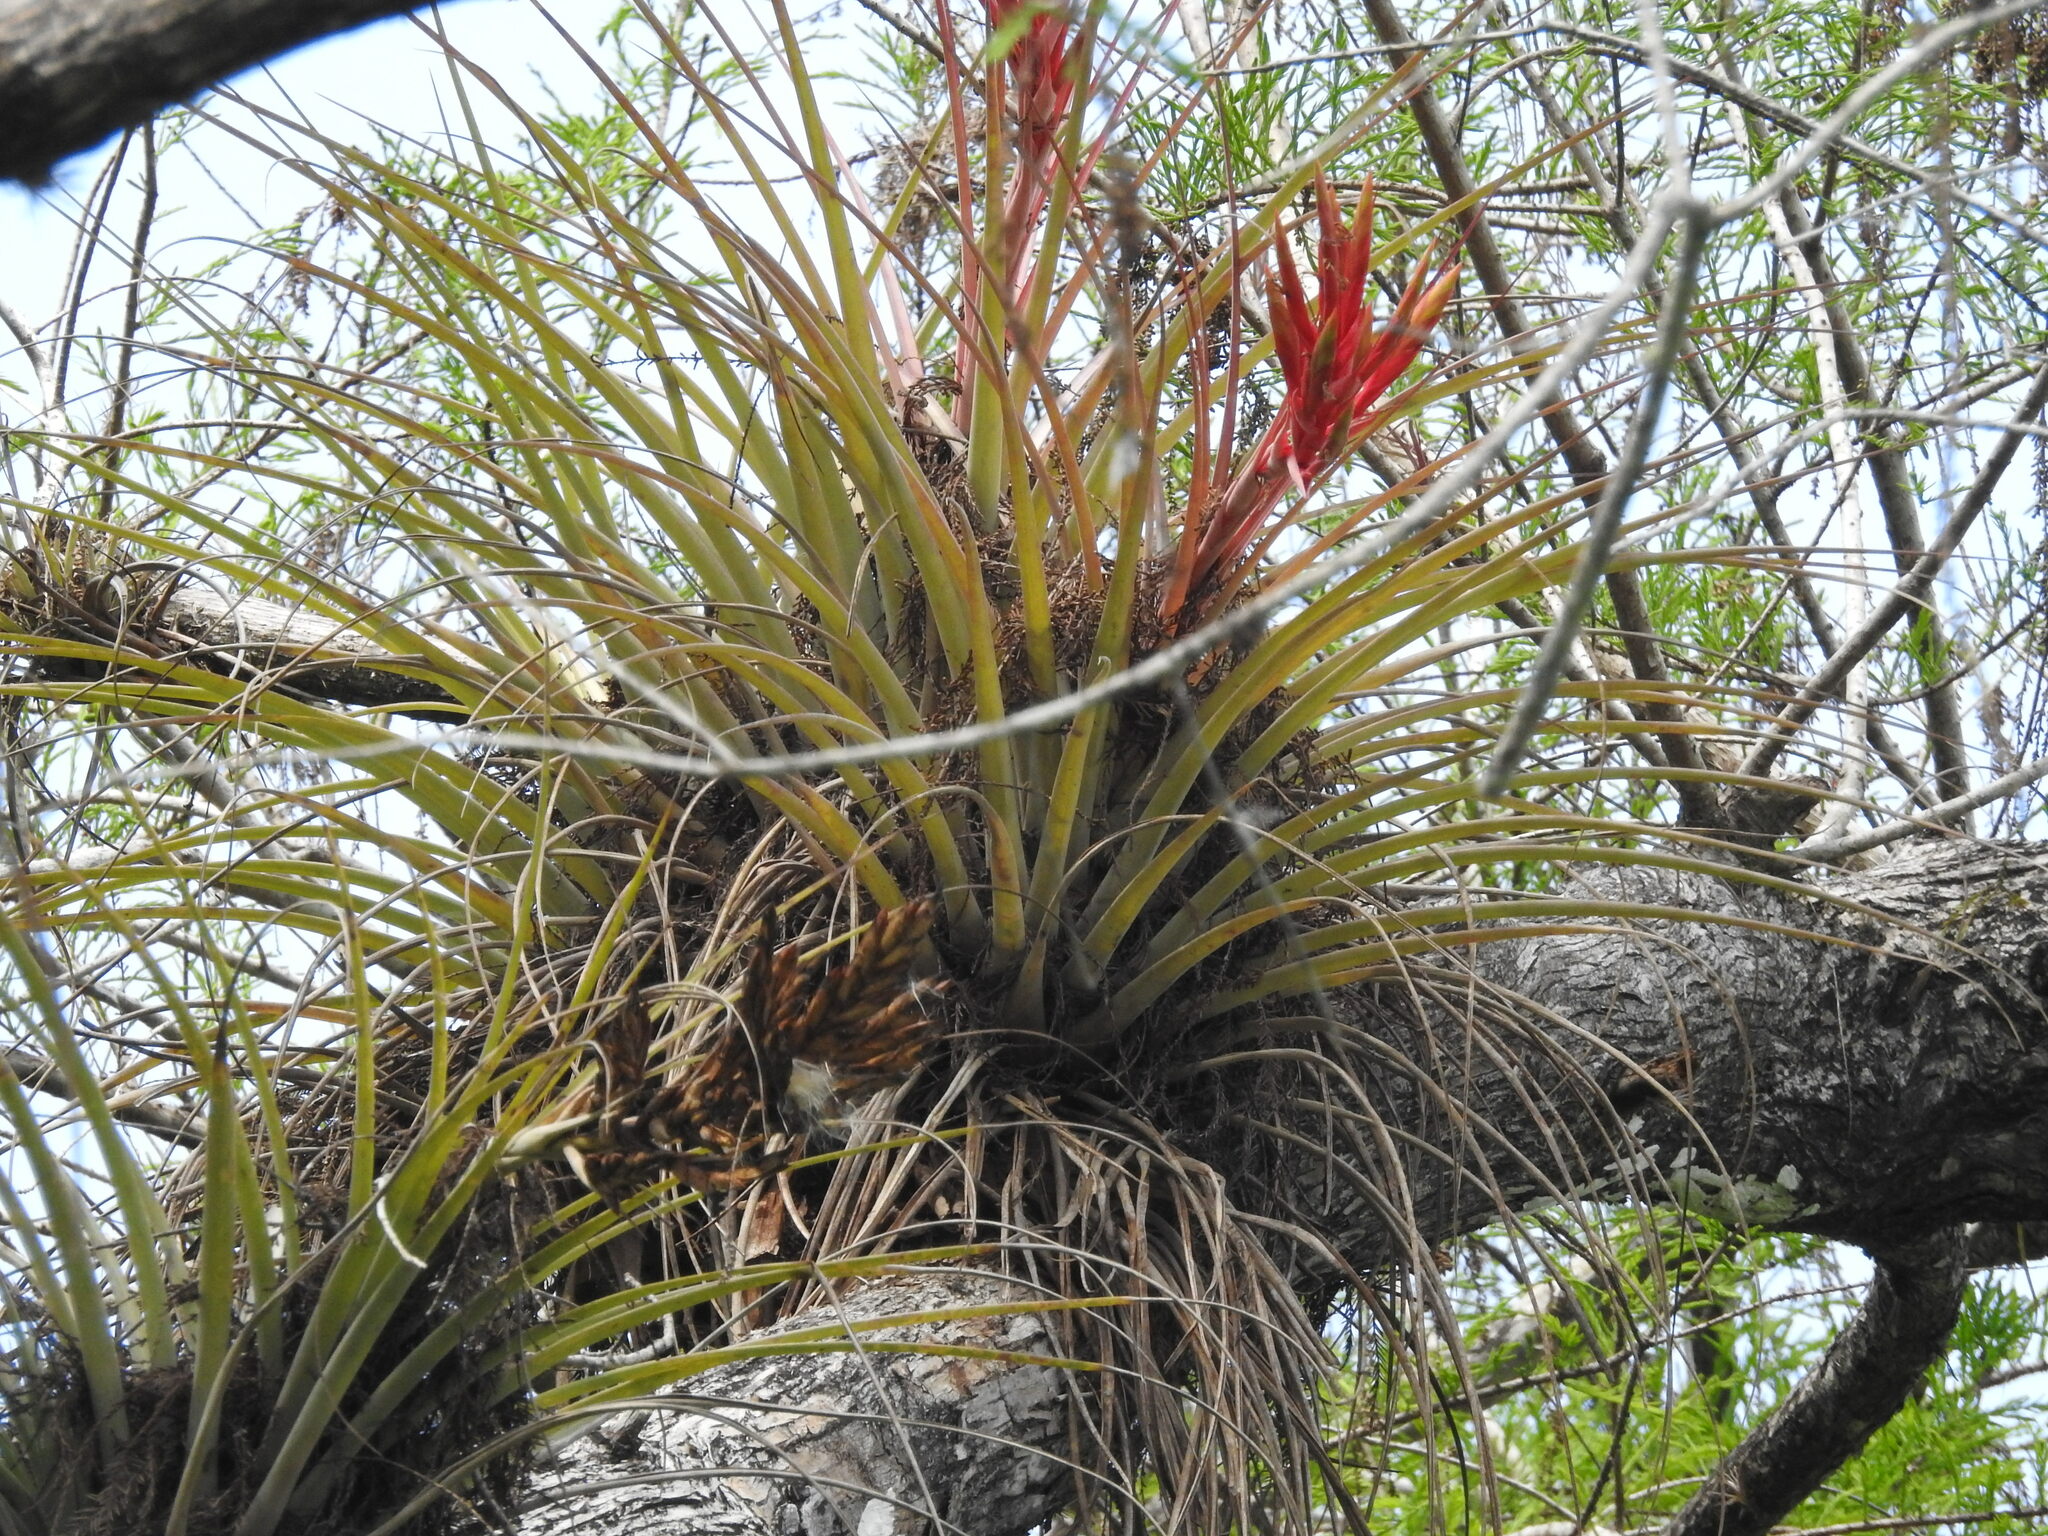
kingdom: Plantae
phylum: Tracheophyta
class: Liliopsida
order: Poales
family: Bromeliaceae
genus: Tillandsia
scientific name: Tillandsia fasciculata
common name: Giant airplant
